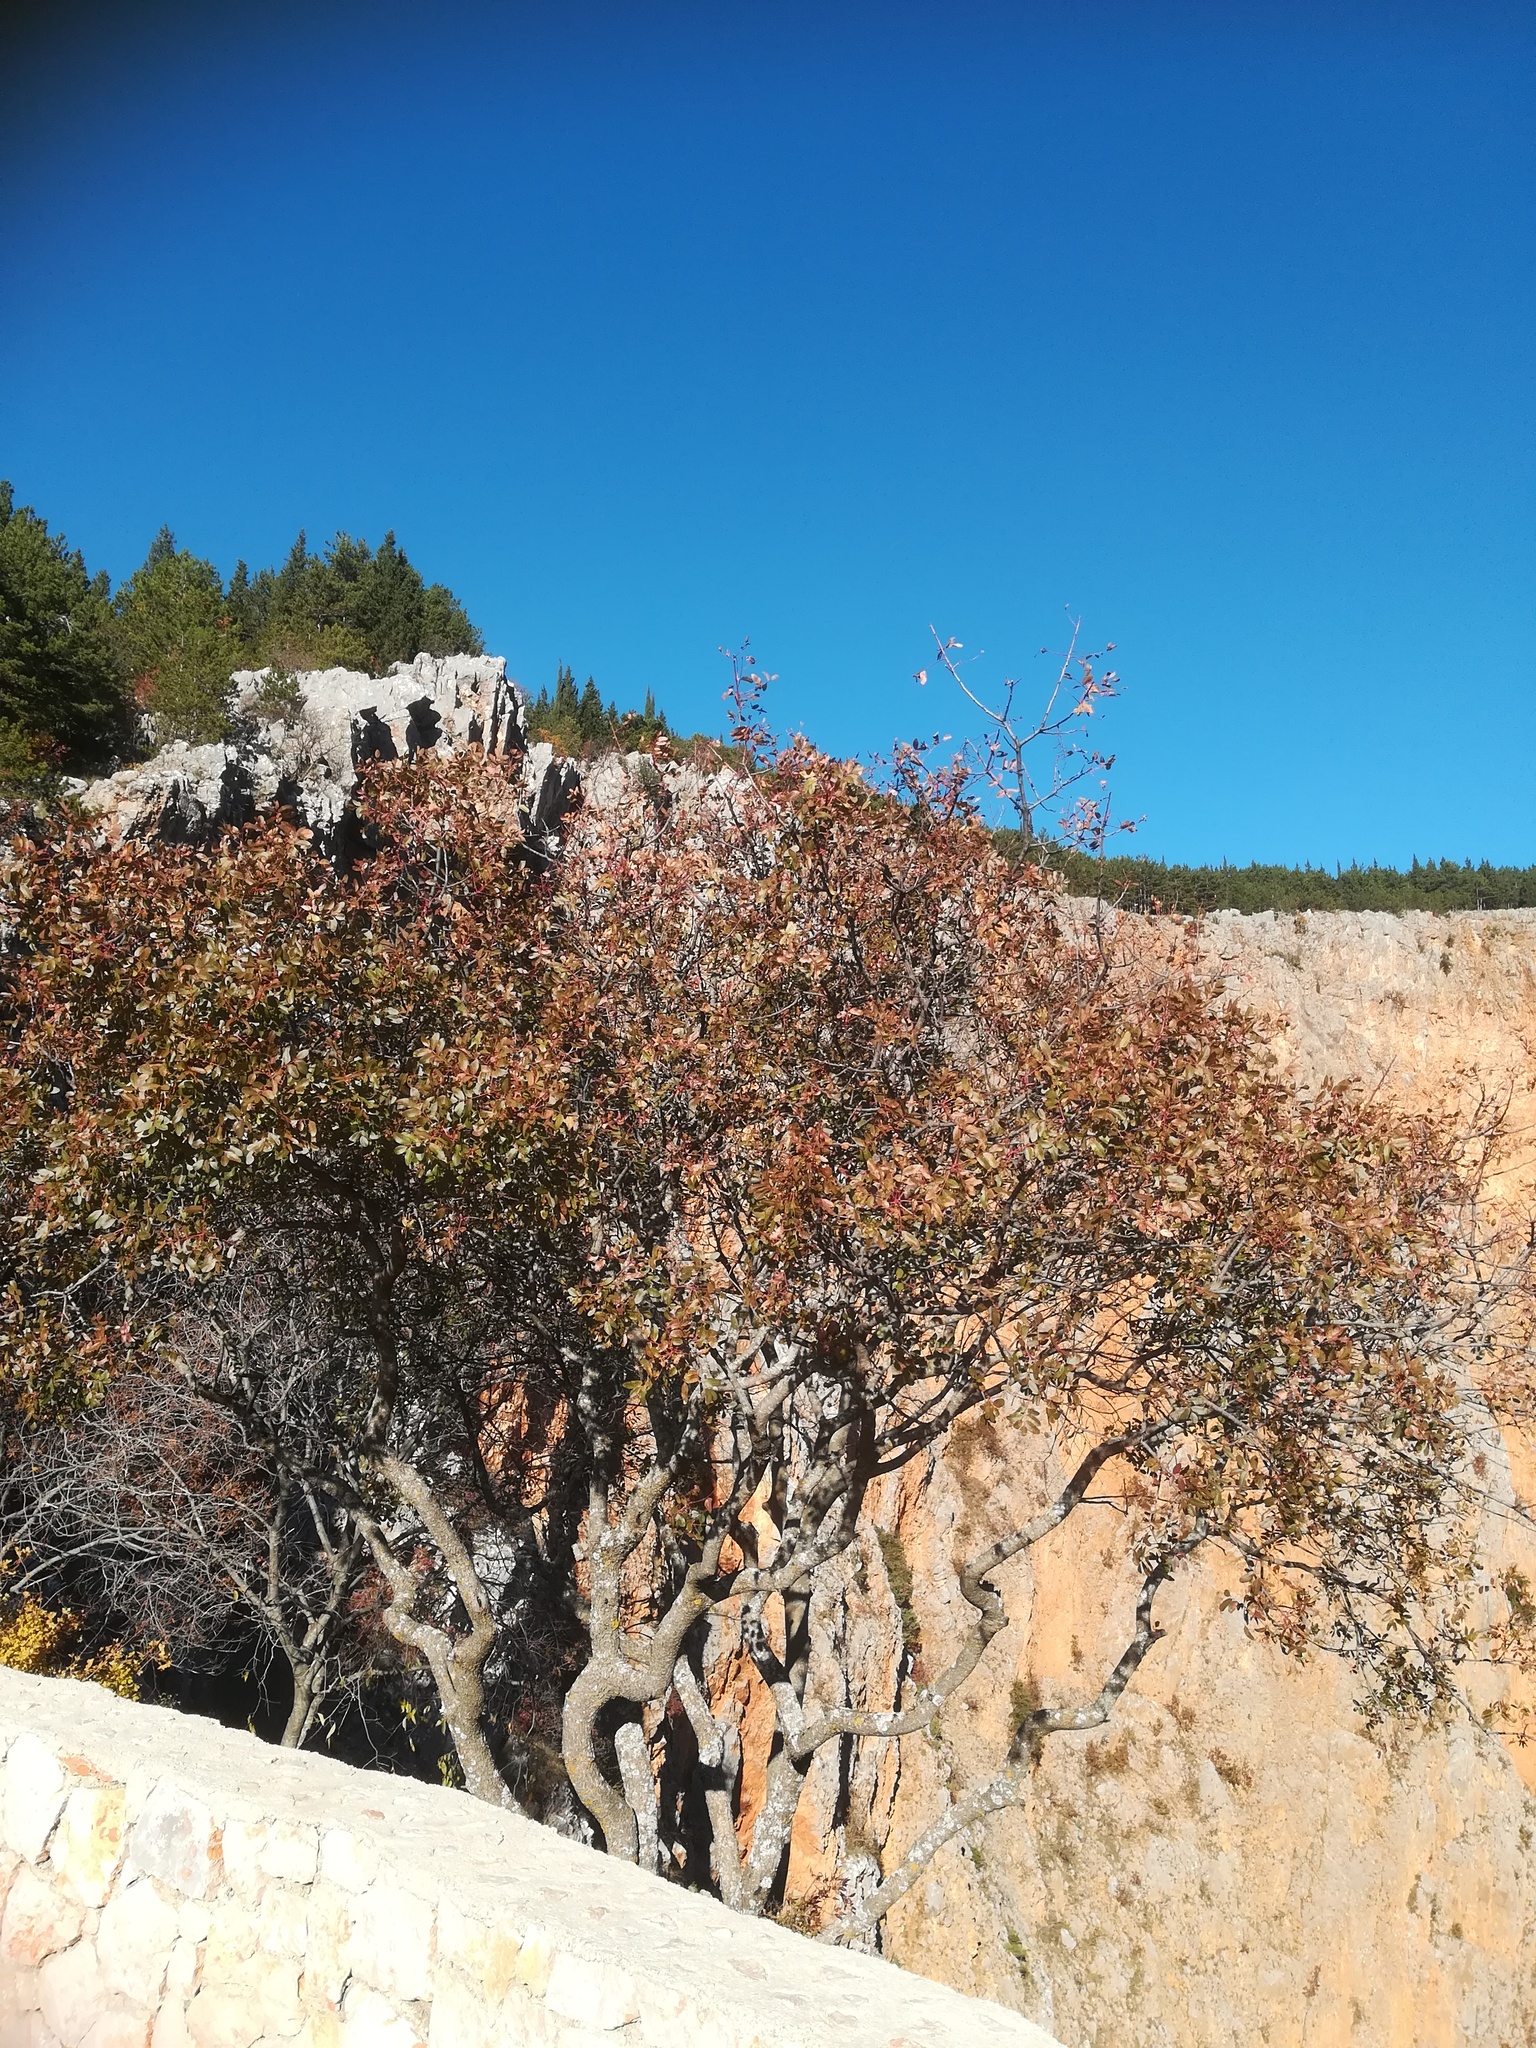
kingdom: Plantae
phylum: Tracheophyta
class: Magnoliopsida
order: Sapindales
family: Anacardiaceae
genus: Pistacia
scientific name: Pistacia terebinthus
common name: Terebinth
